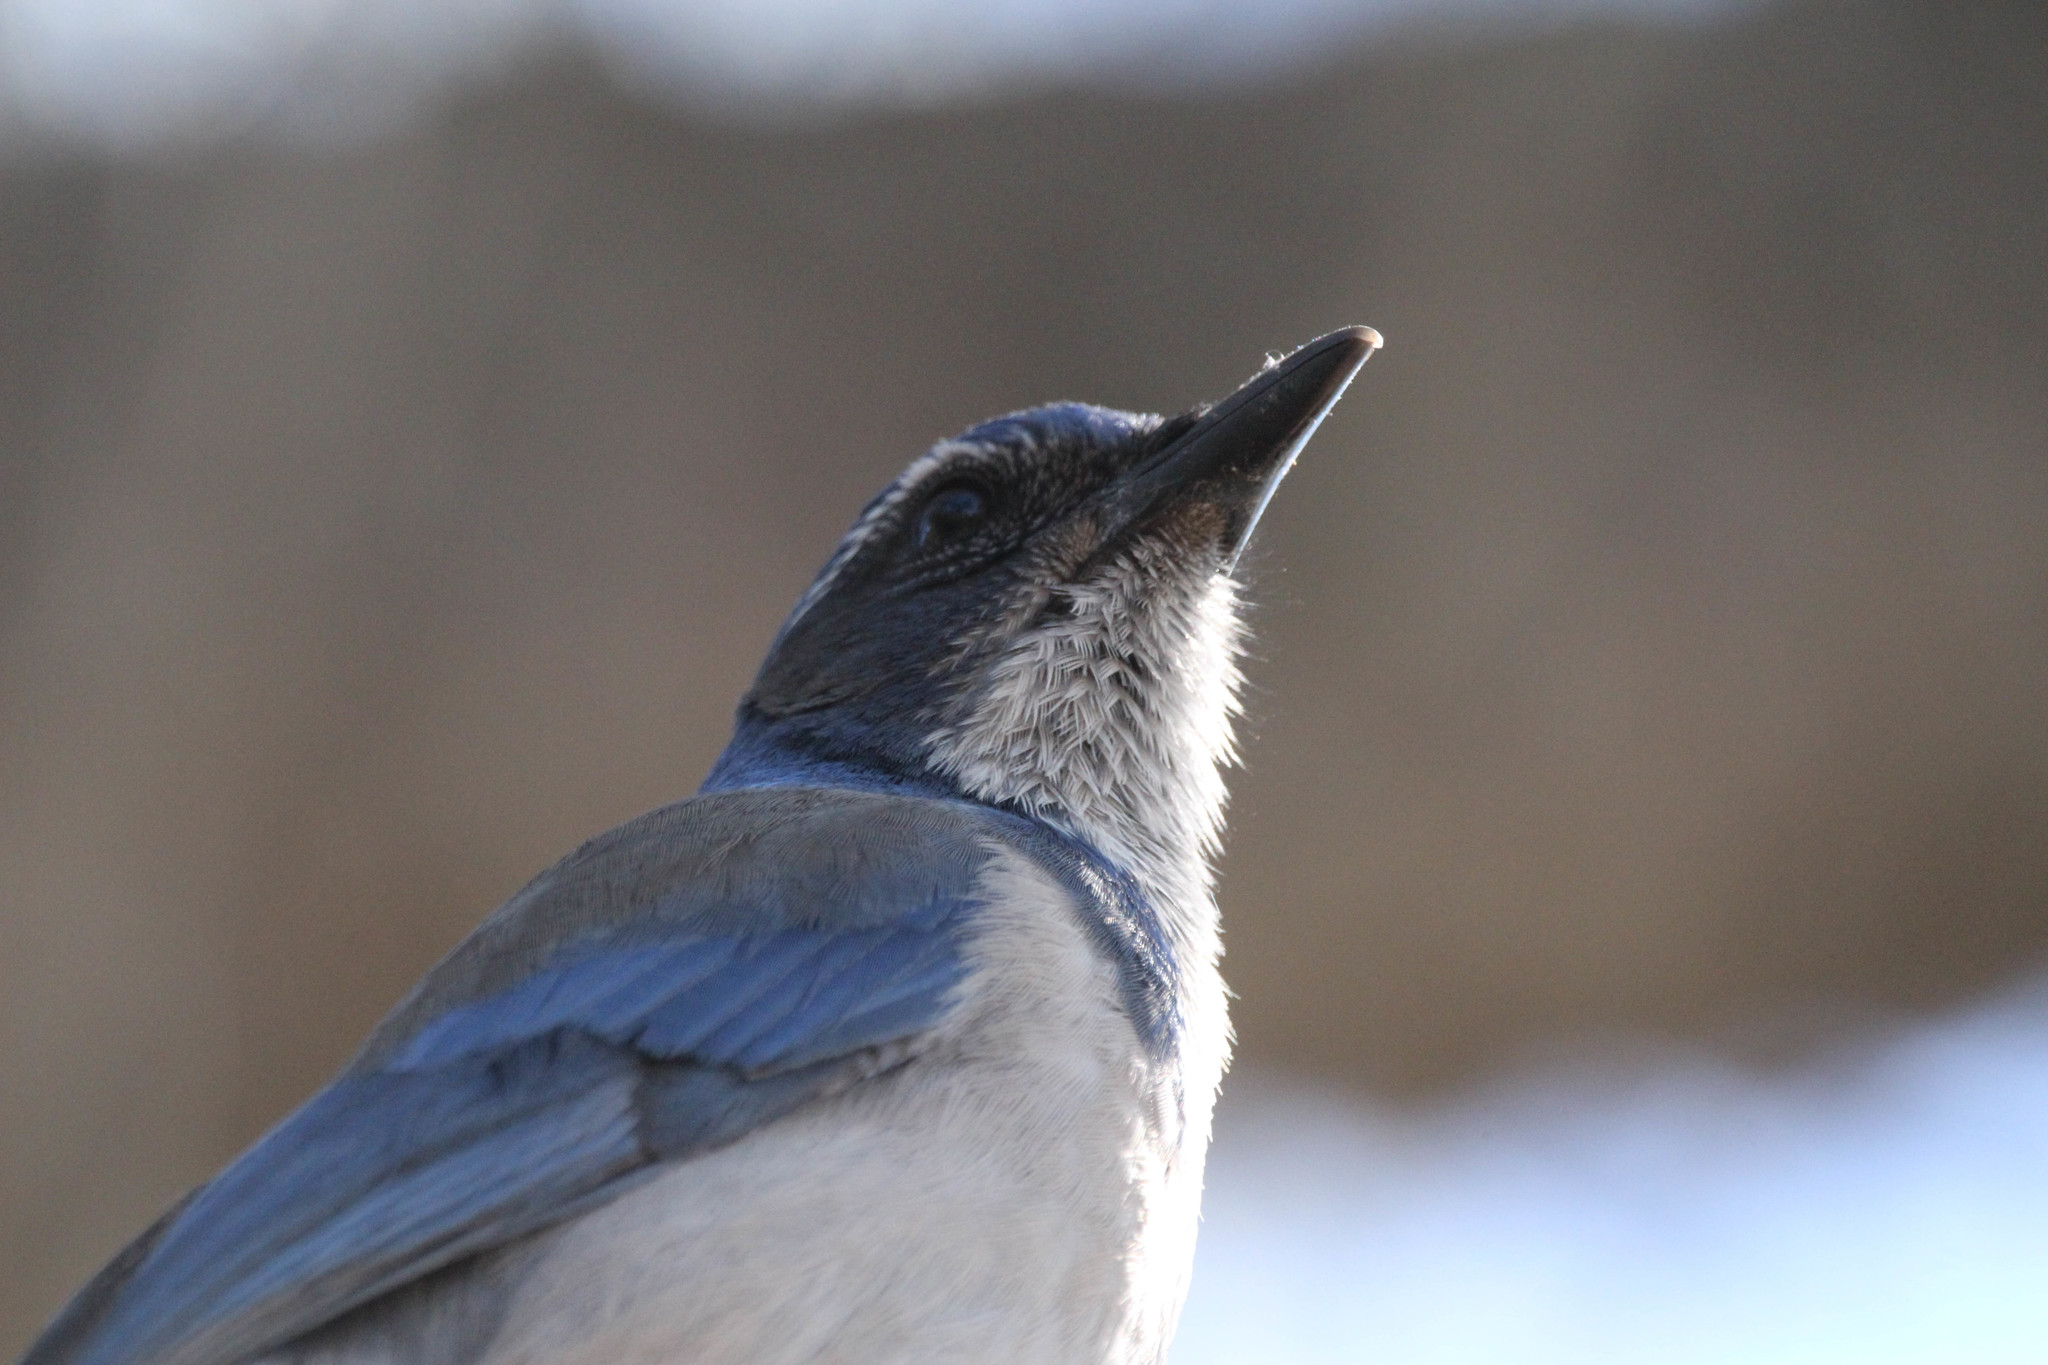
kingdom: Animalia
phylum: Chordata
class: Aves
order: Passeriformes
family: Corvidae
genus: Aphelocoma
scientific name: Aphelocoma californica
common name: California scrub-jay
